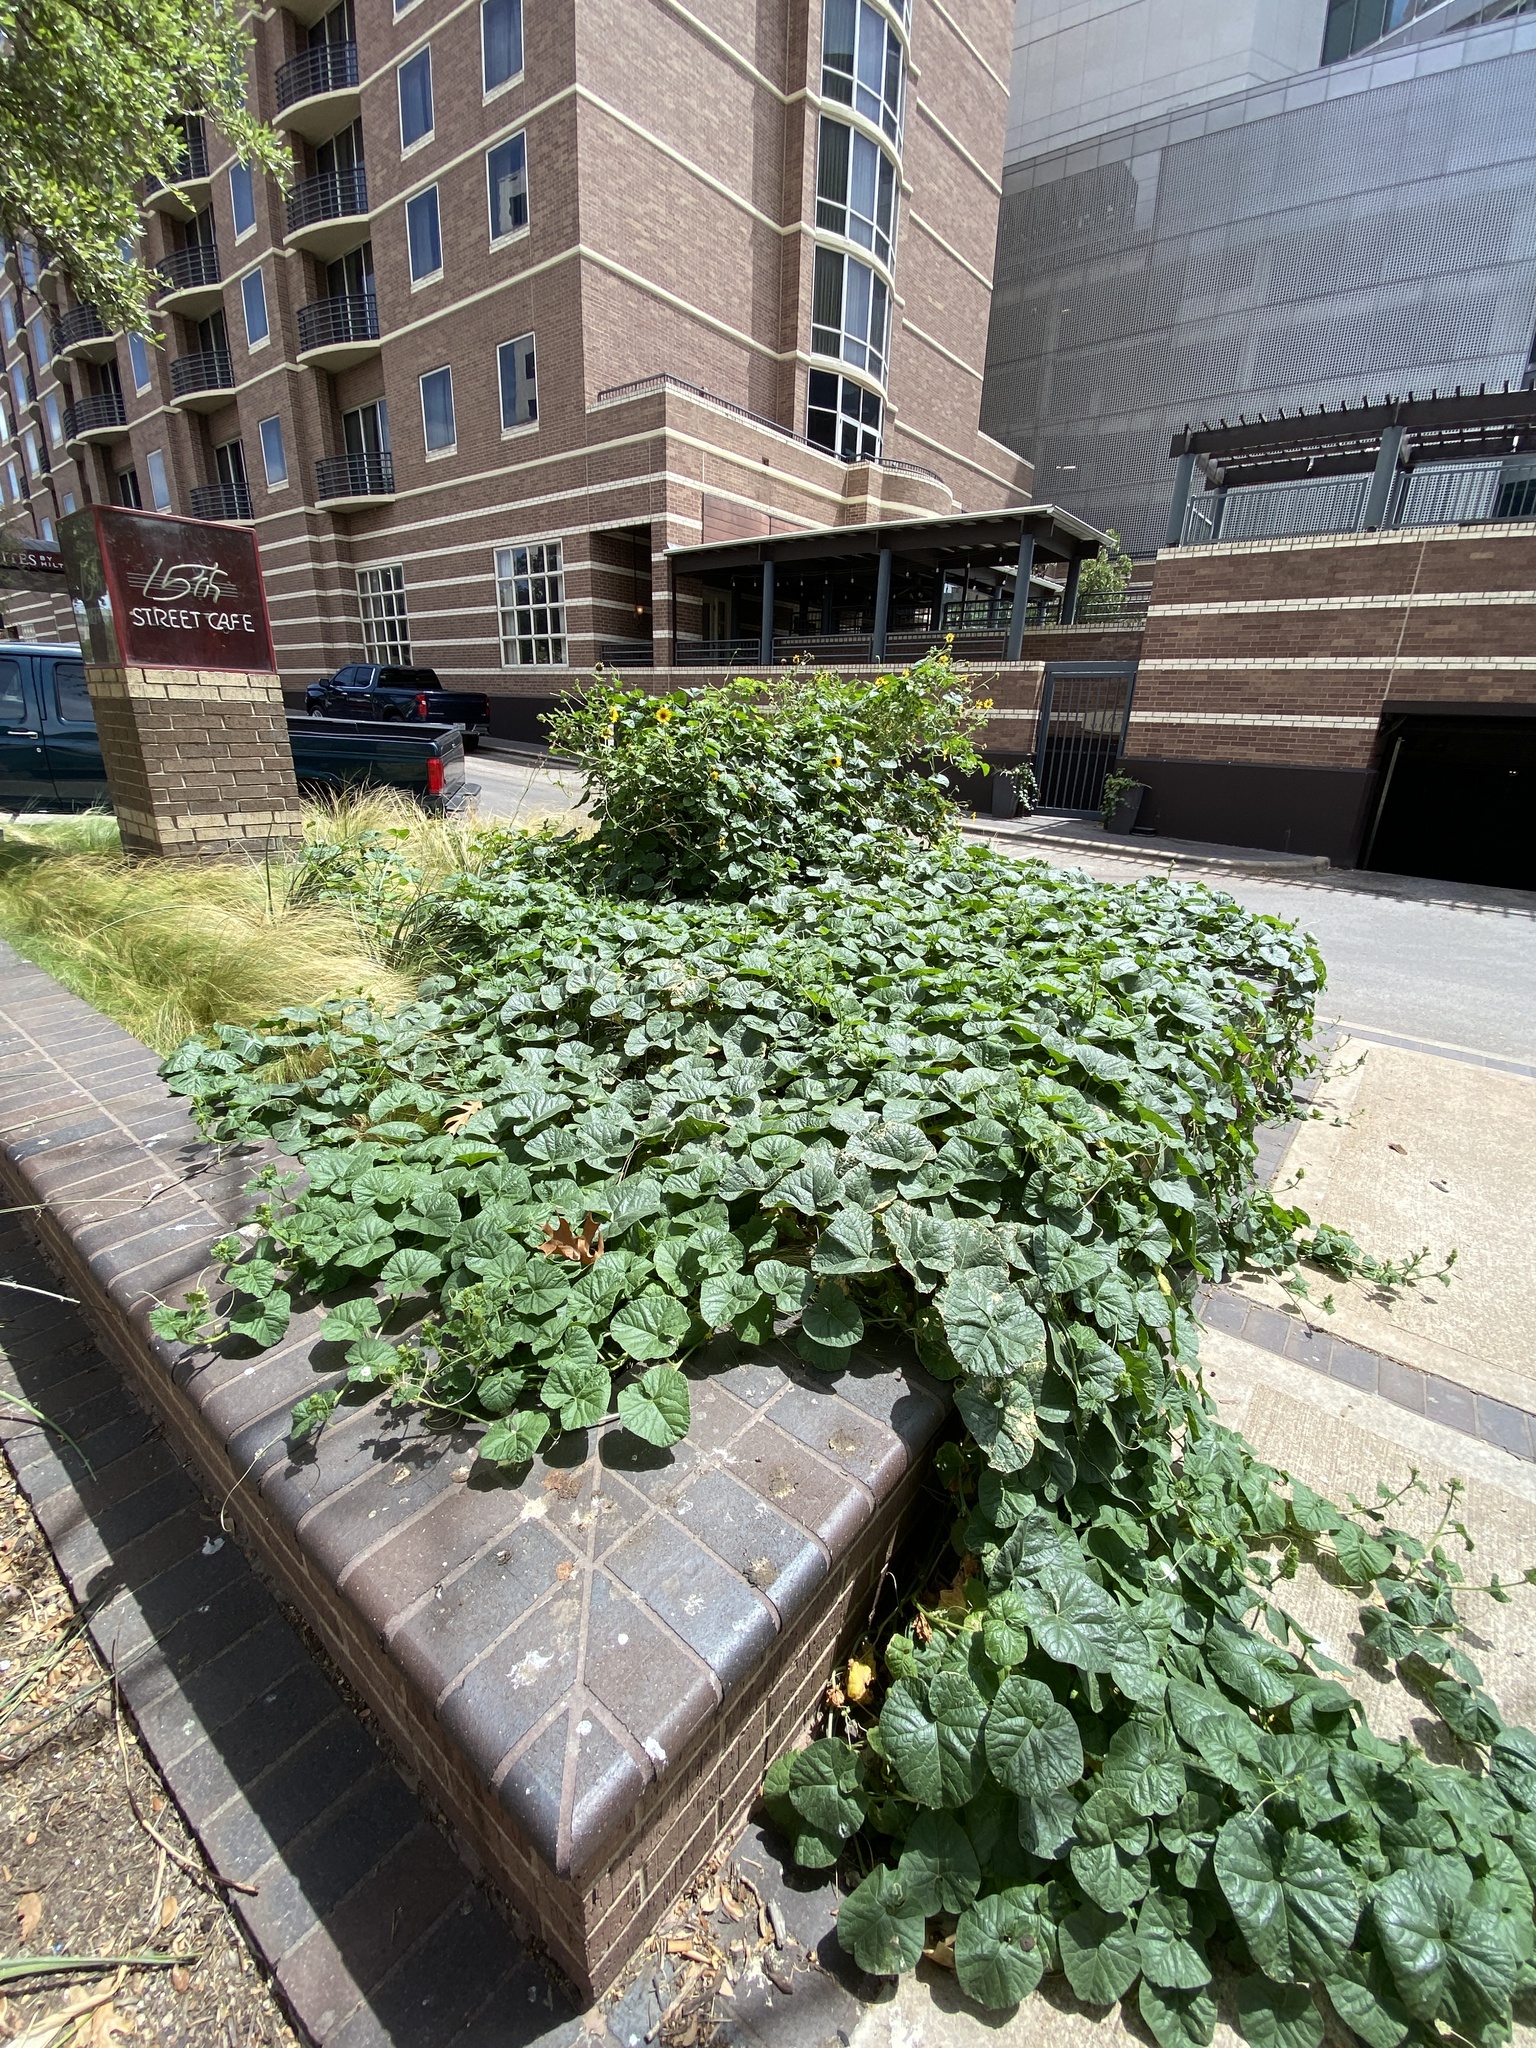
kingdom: Plantae
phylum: Tracheophyta
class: Magnoliopsida
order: Cucurbitales
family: Cucurbitaceae
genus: Cucumis
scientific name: Cucumis melo
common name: Melon
